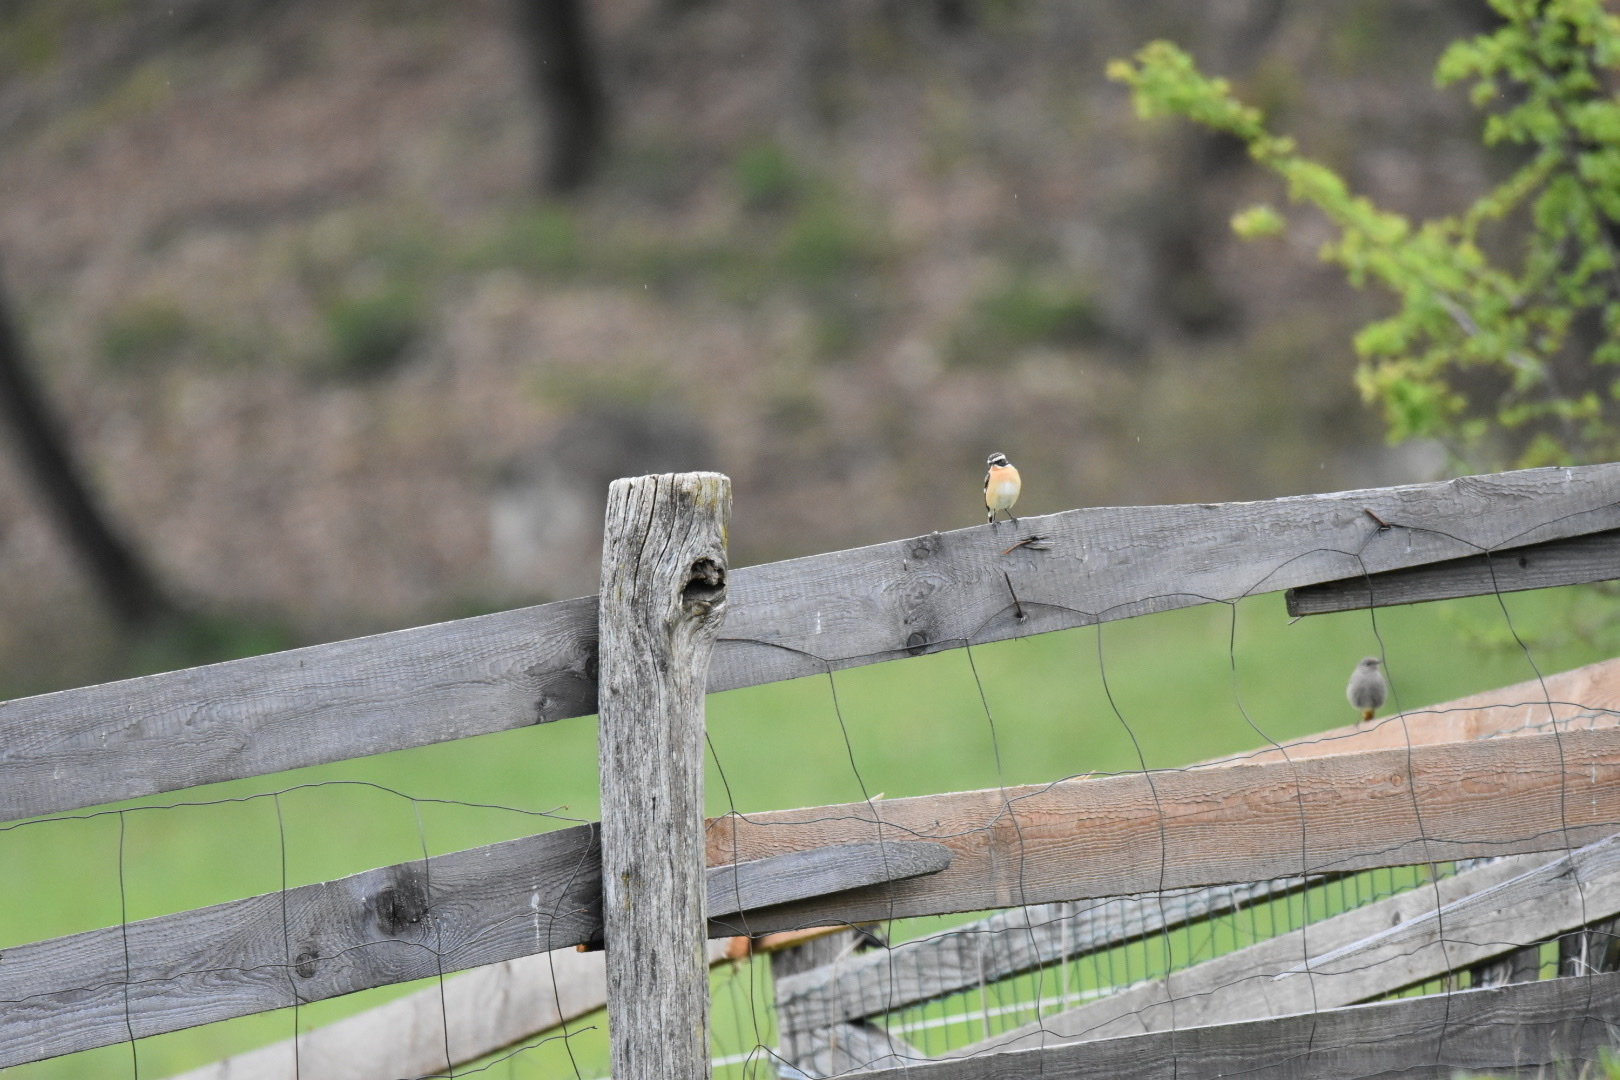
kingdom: Animalia
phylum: Chordata
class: Aves
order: Passeriformes
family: Muscicapidae
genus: Saxicola
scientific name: Saxicola rubetra
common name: Whinchat
